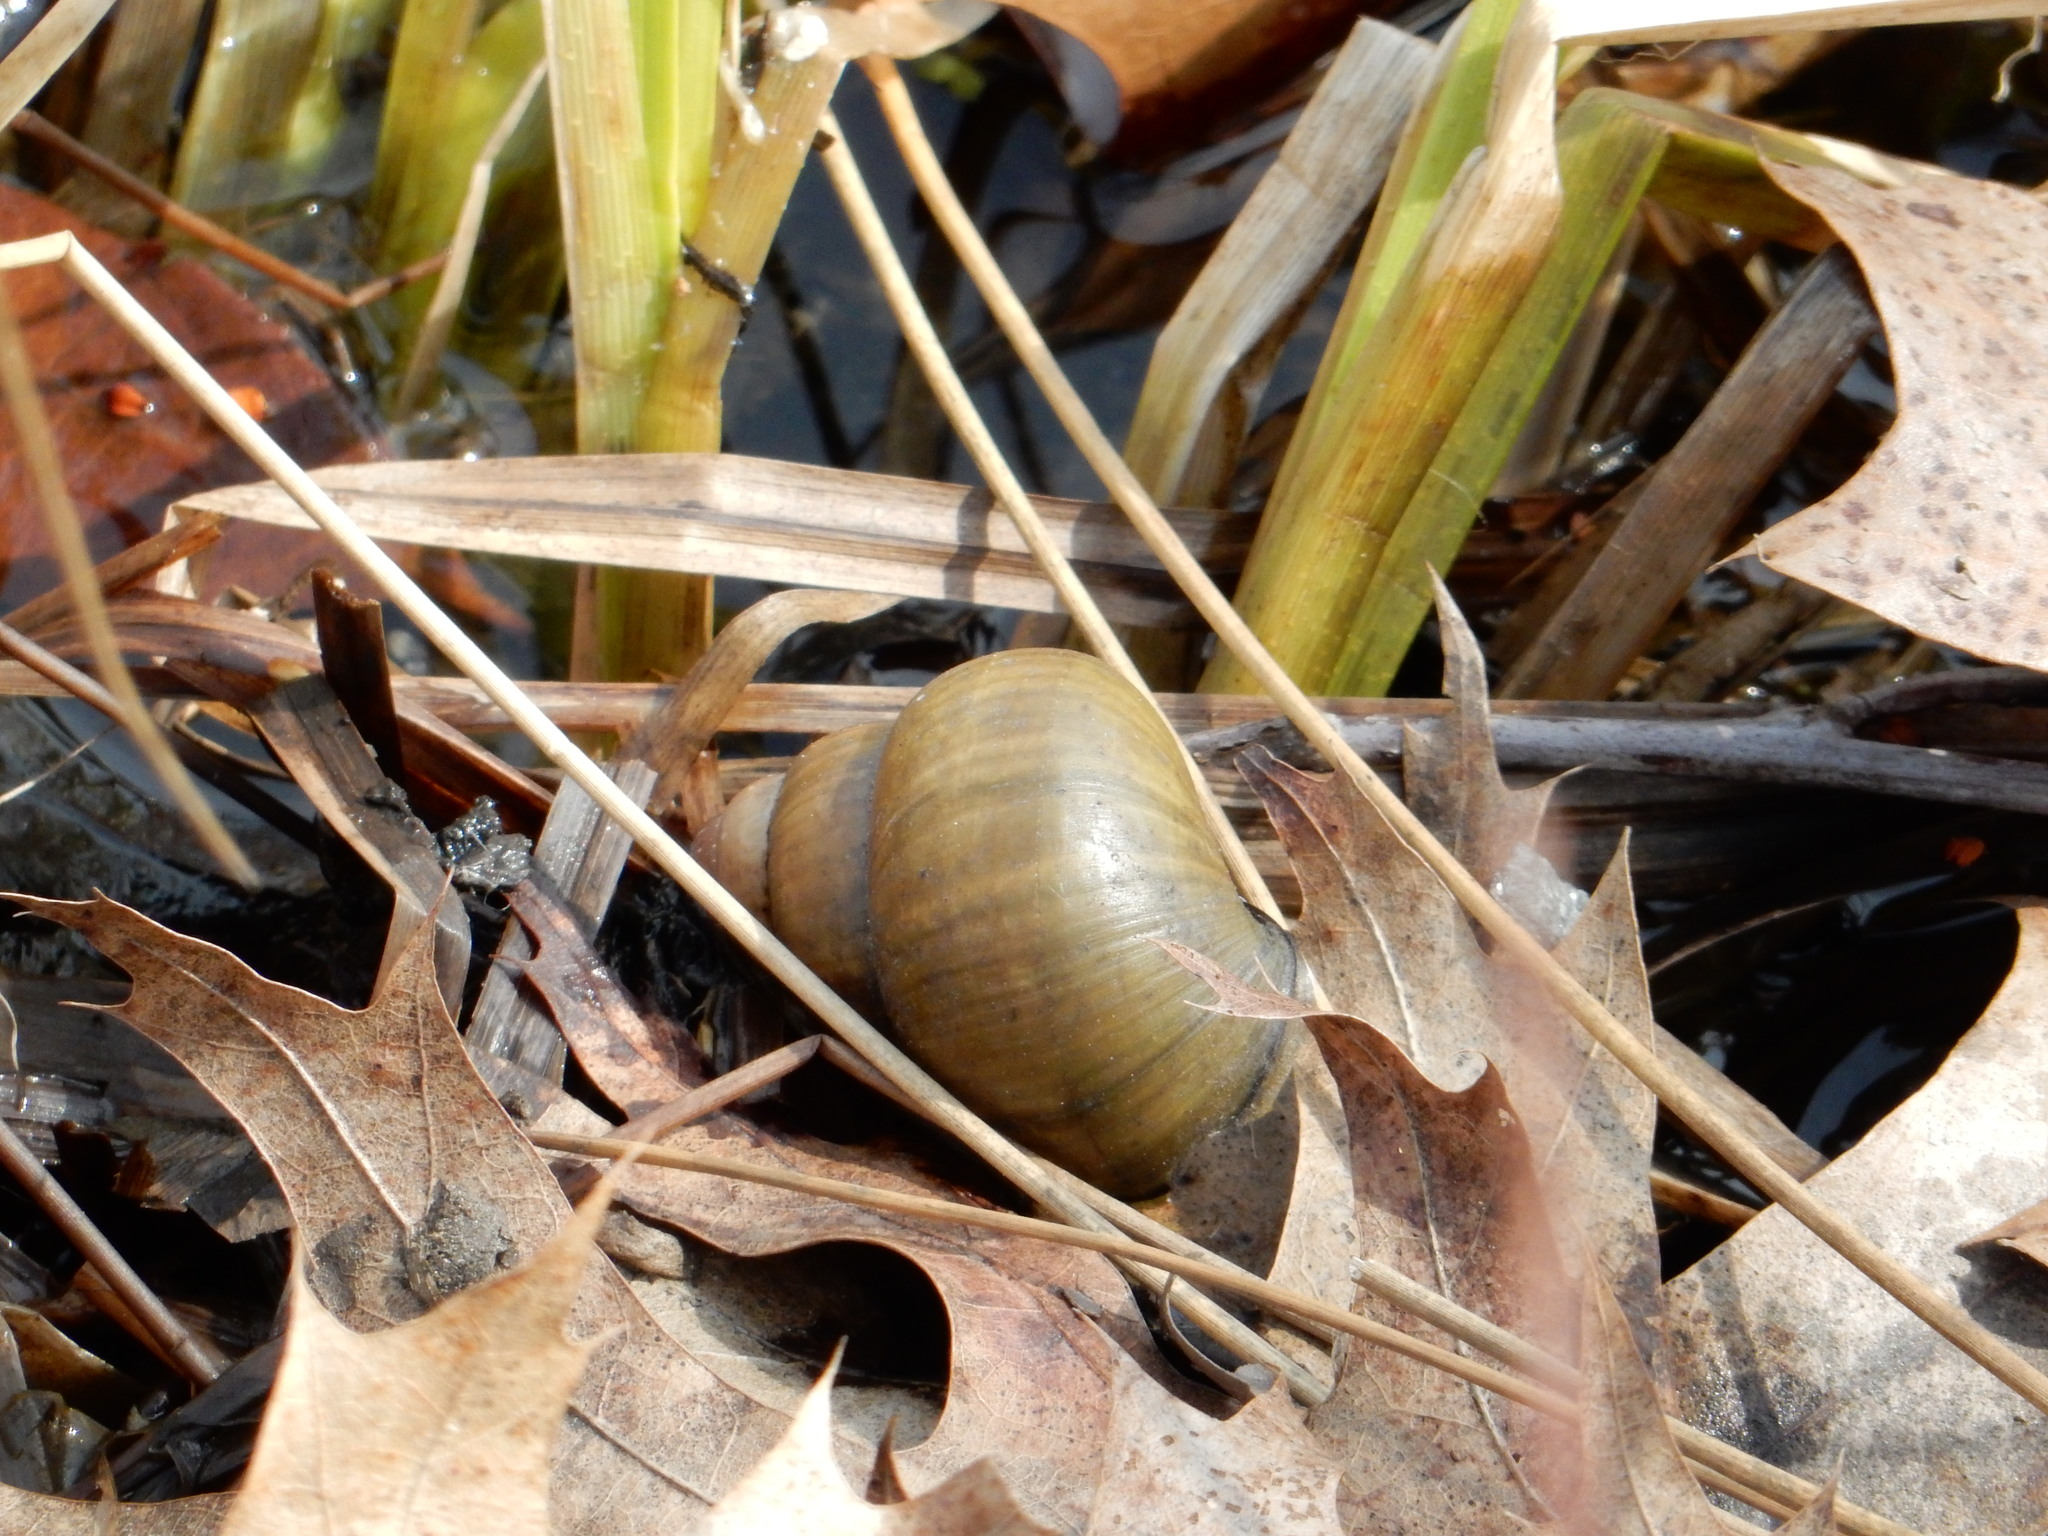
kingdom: Animalia
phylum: Mollusca
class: Gastropoda
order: Architaenioglossa
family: Viviparidae
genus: Cipangopaludina
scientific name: Cipangopaludina chinensis
